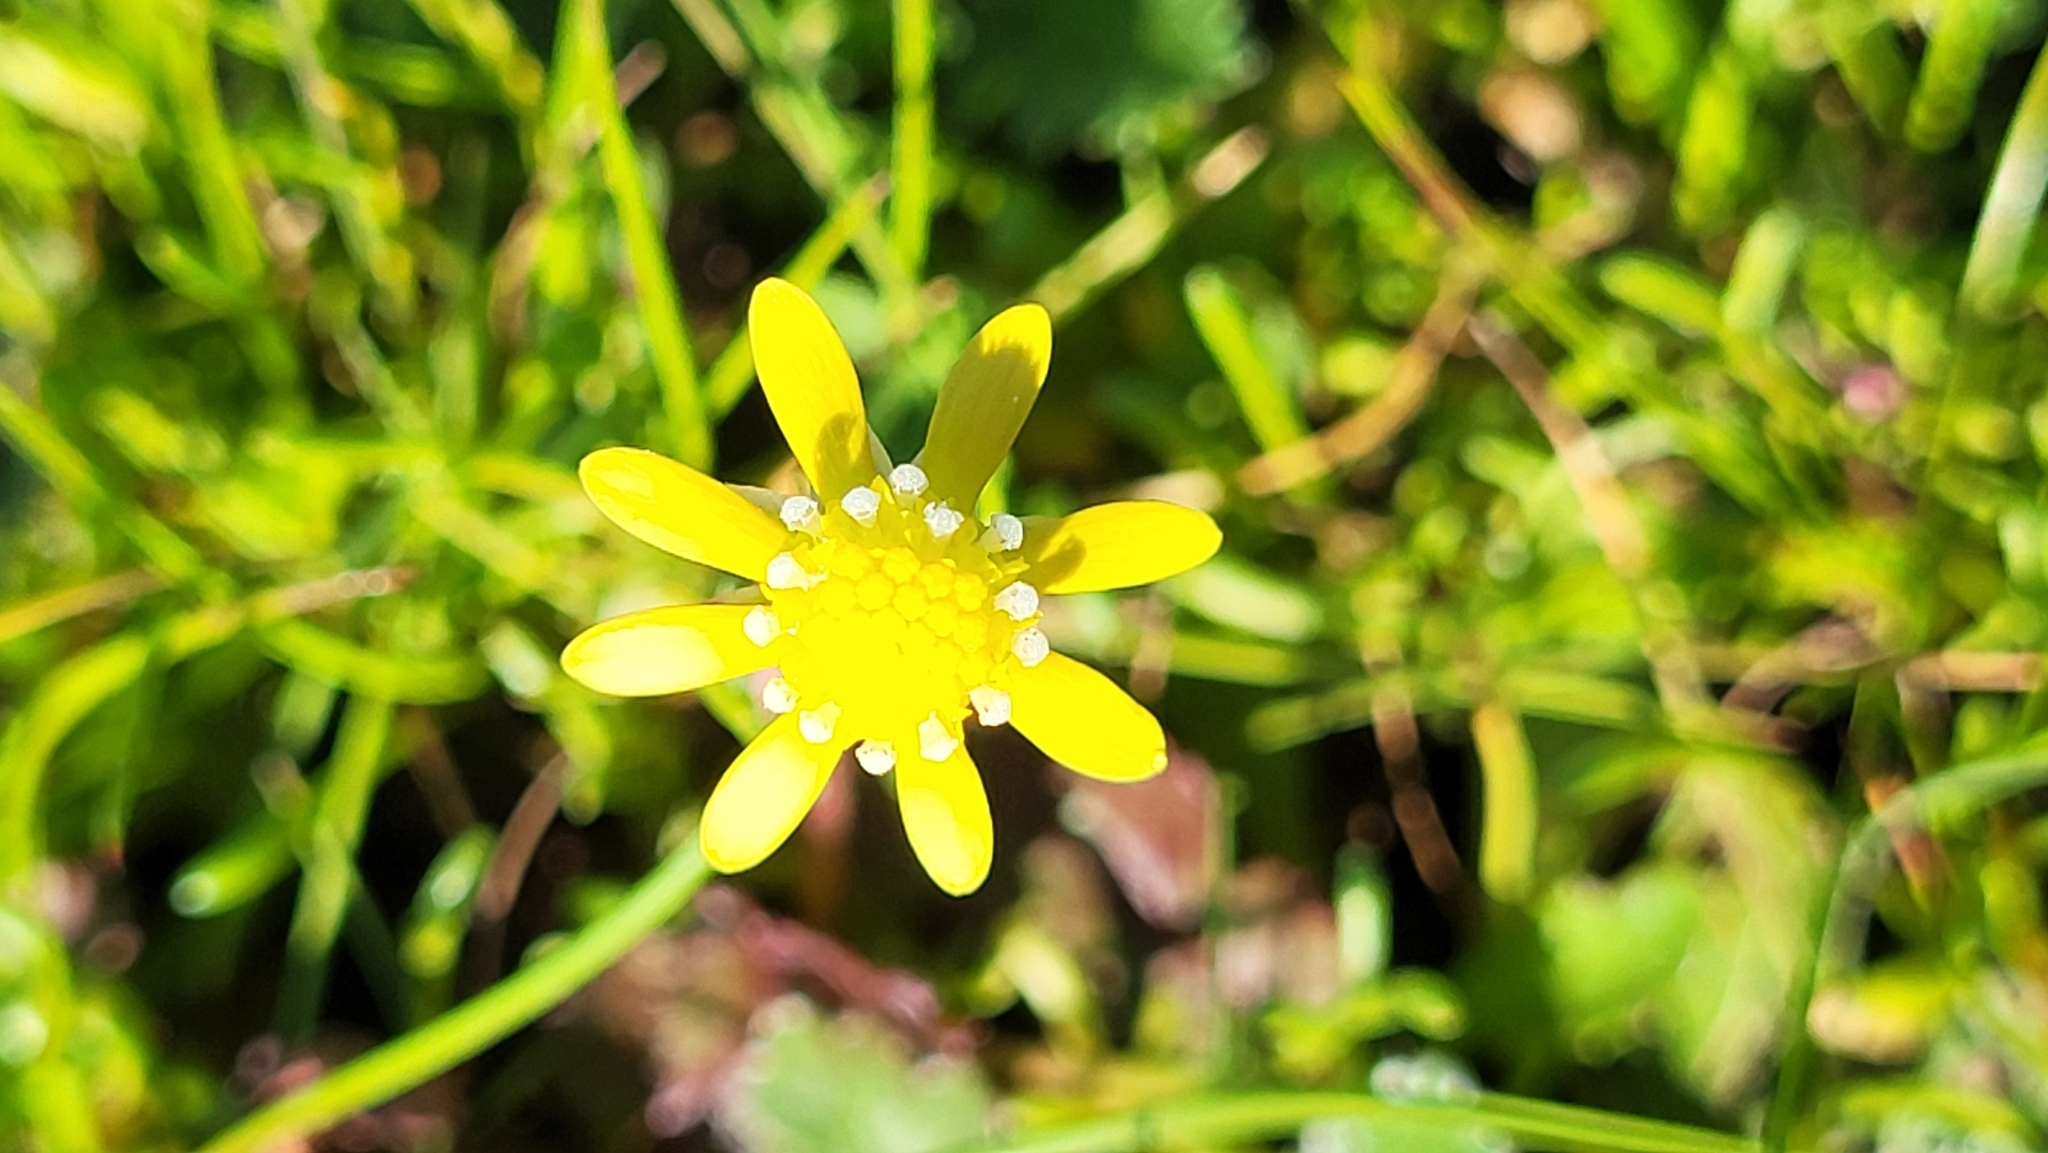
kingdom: Plantae
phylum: Tracheophyta
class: Magnoliopsida
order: Asterales
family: Asteraceae
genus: Blennosperma
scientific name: Blennosperma nanum
